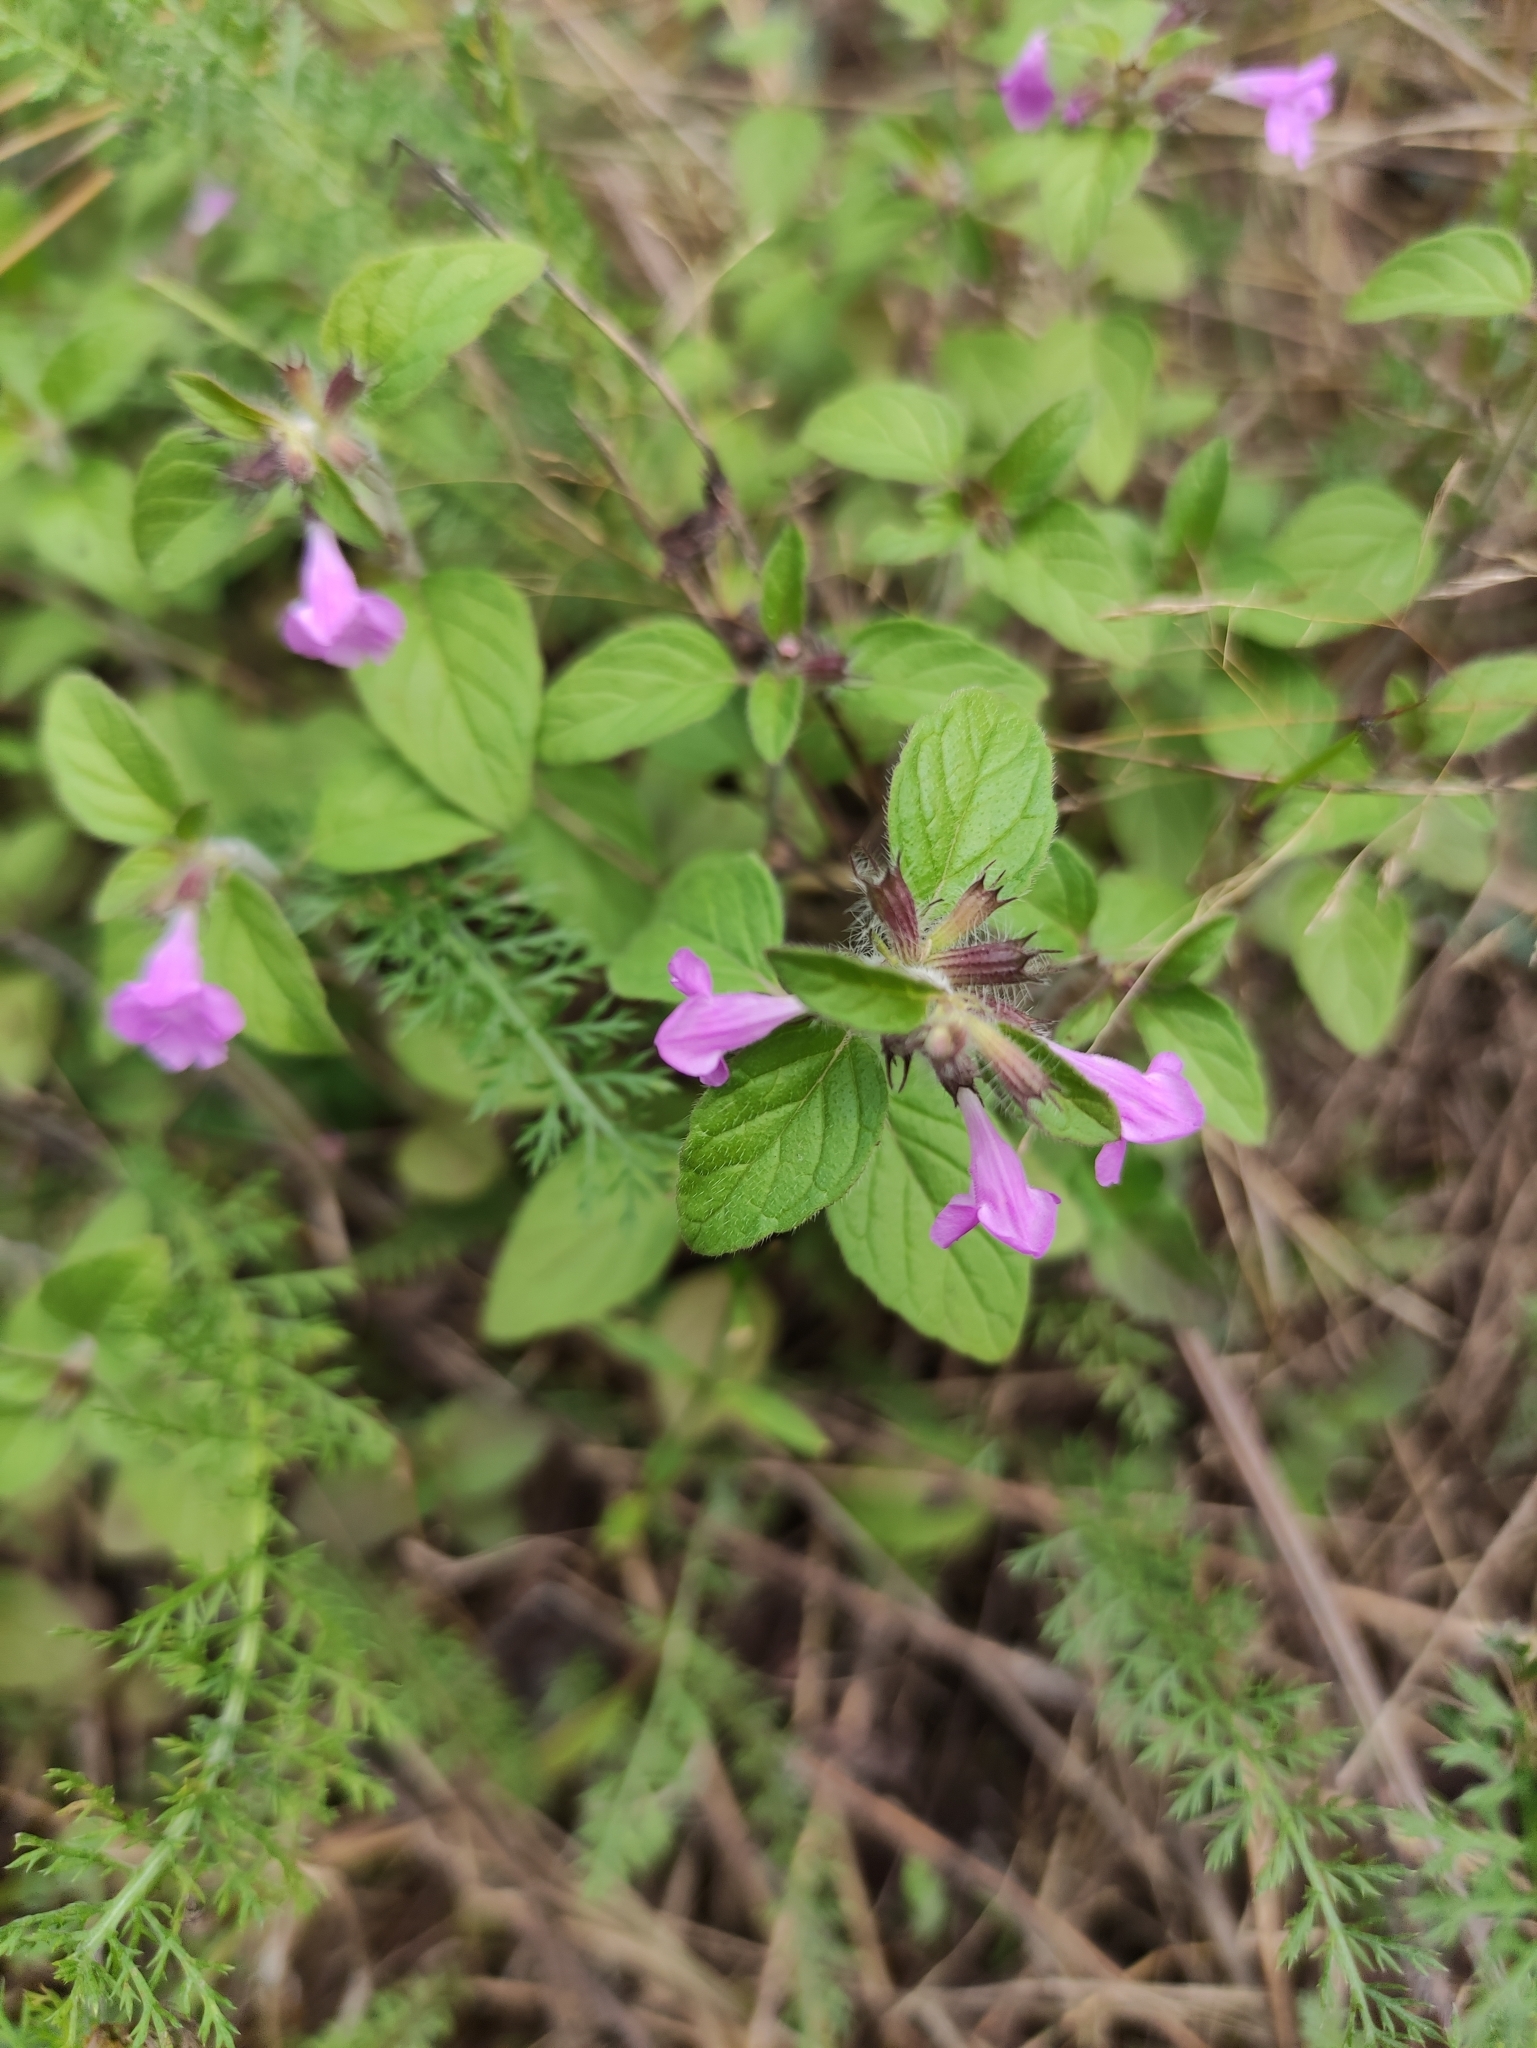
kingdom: Plantae
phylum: Tracheophyta
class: Magnoliopsida
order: Lamiales
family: Lamiaceae
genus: Clinopodium
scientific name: Clinopodium vulgare
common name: Wild basil
